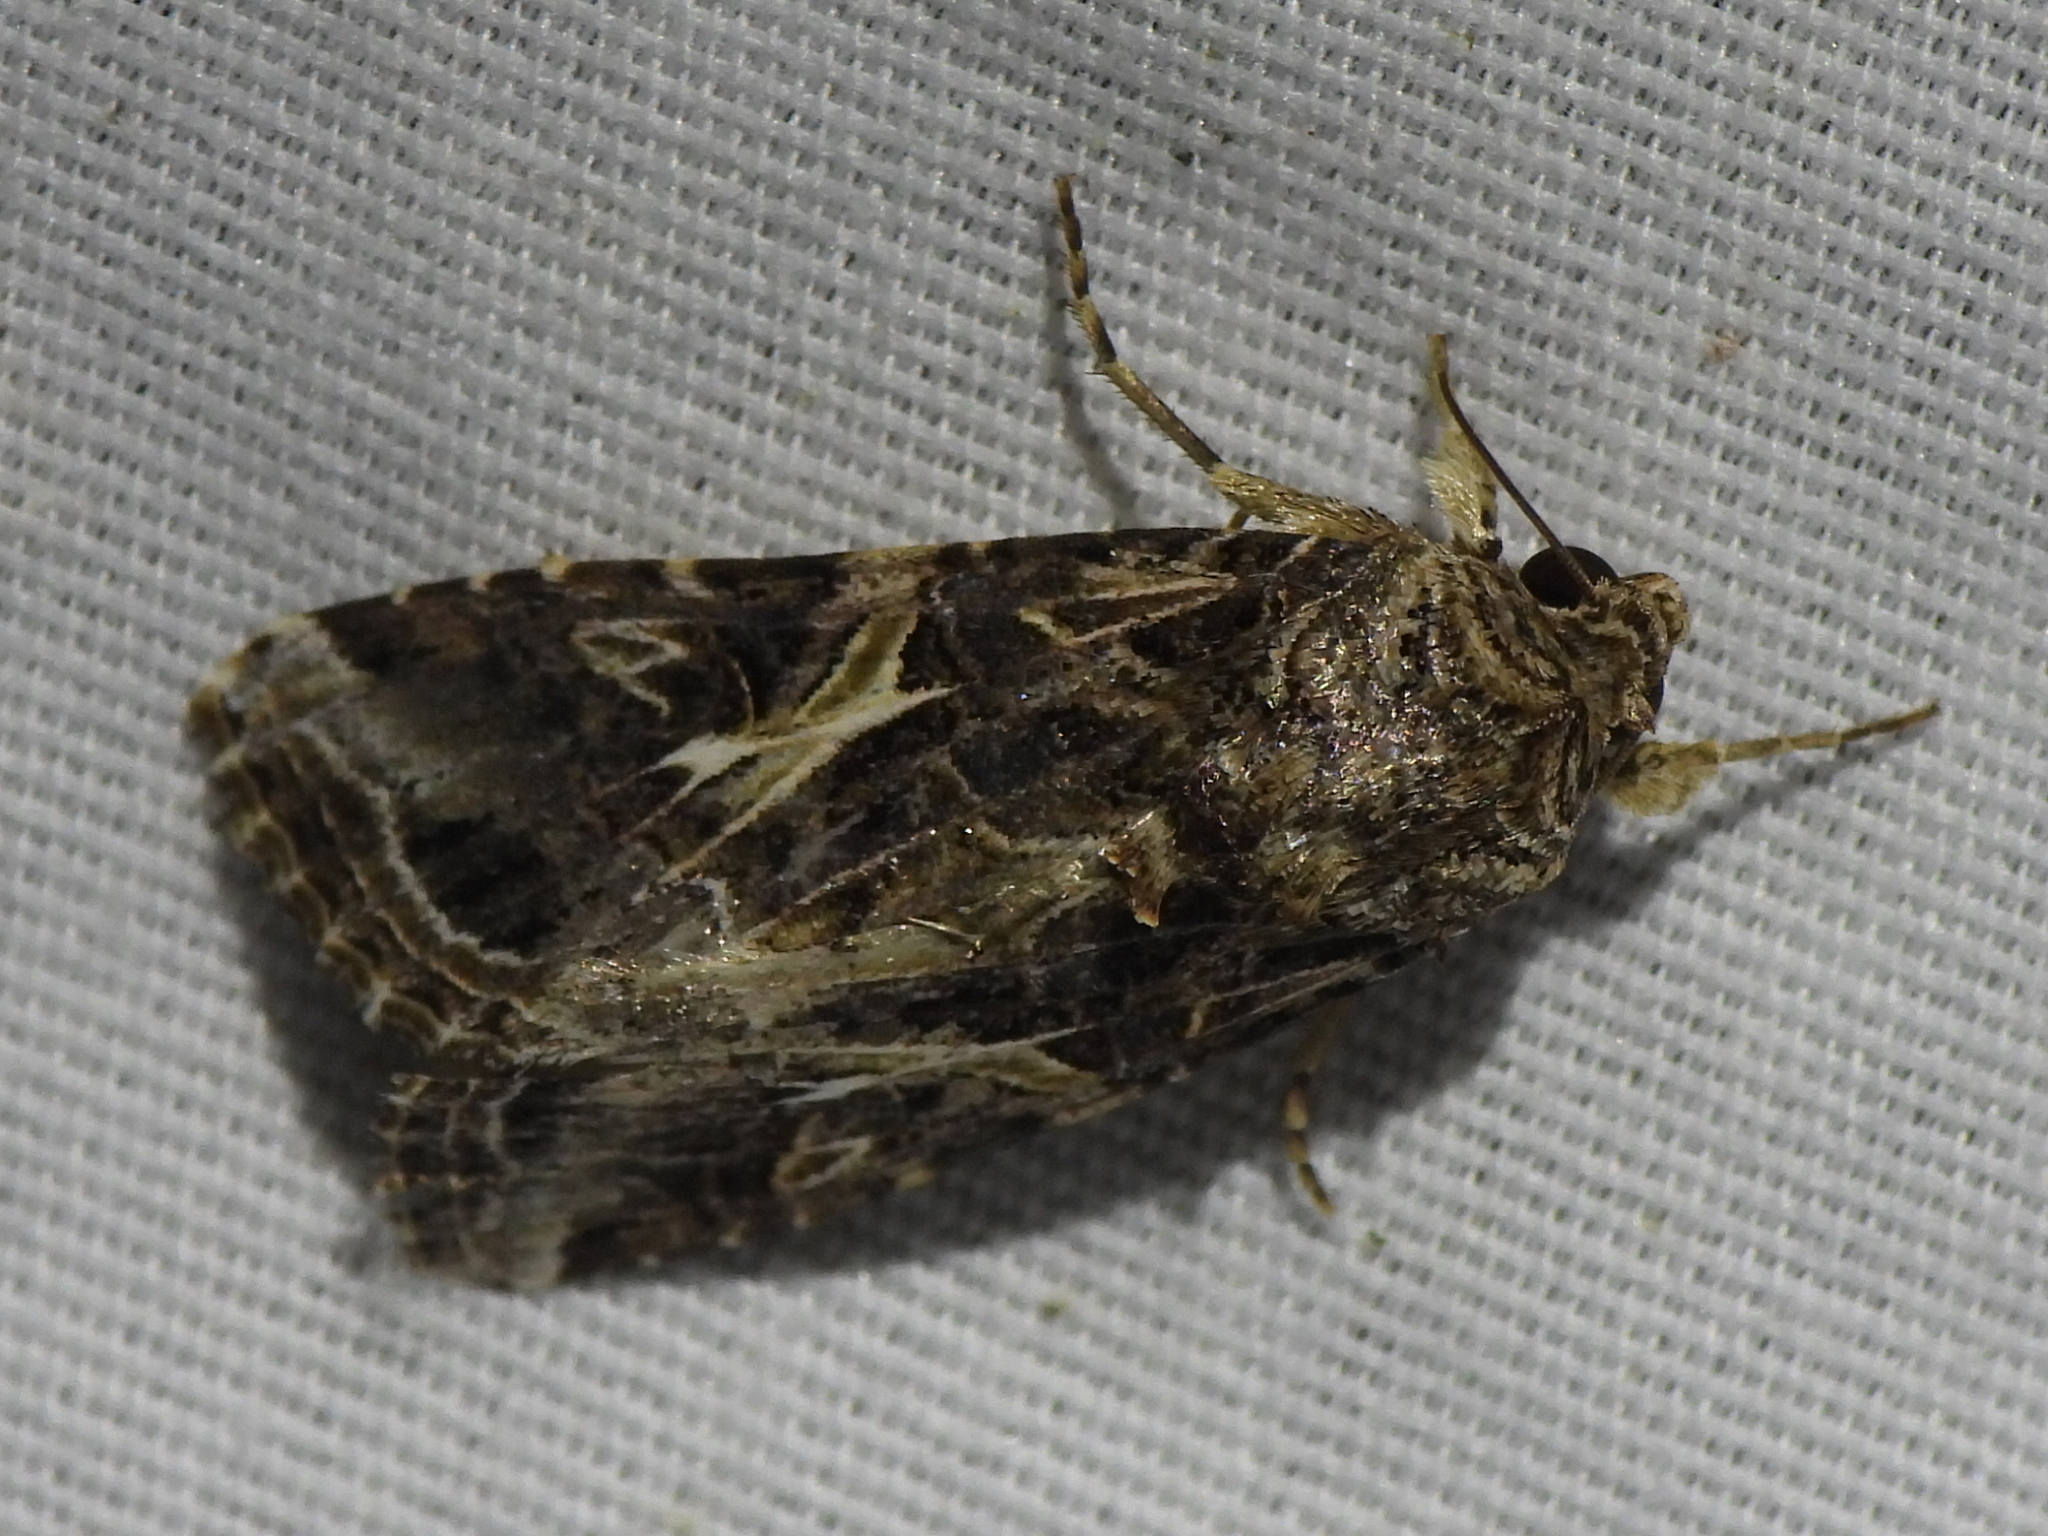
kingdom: Animalia
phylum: Arthropoda
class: Insecta
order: Lepidoptera
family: Noctuidae
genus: Spodoptera
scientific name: Spodoptera ornithogalli
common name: Yellow-striped armyworm
